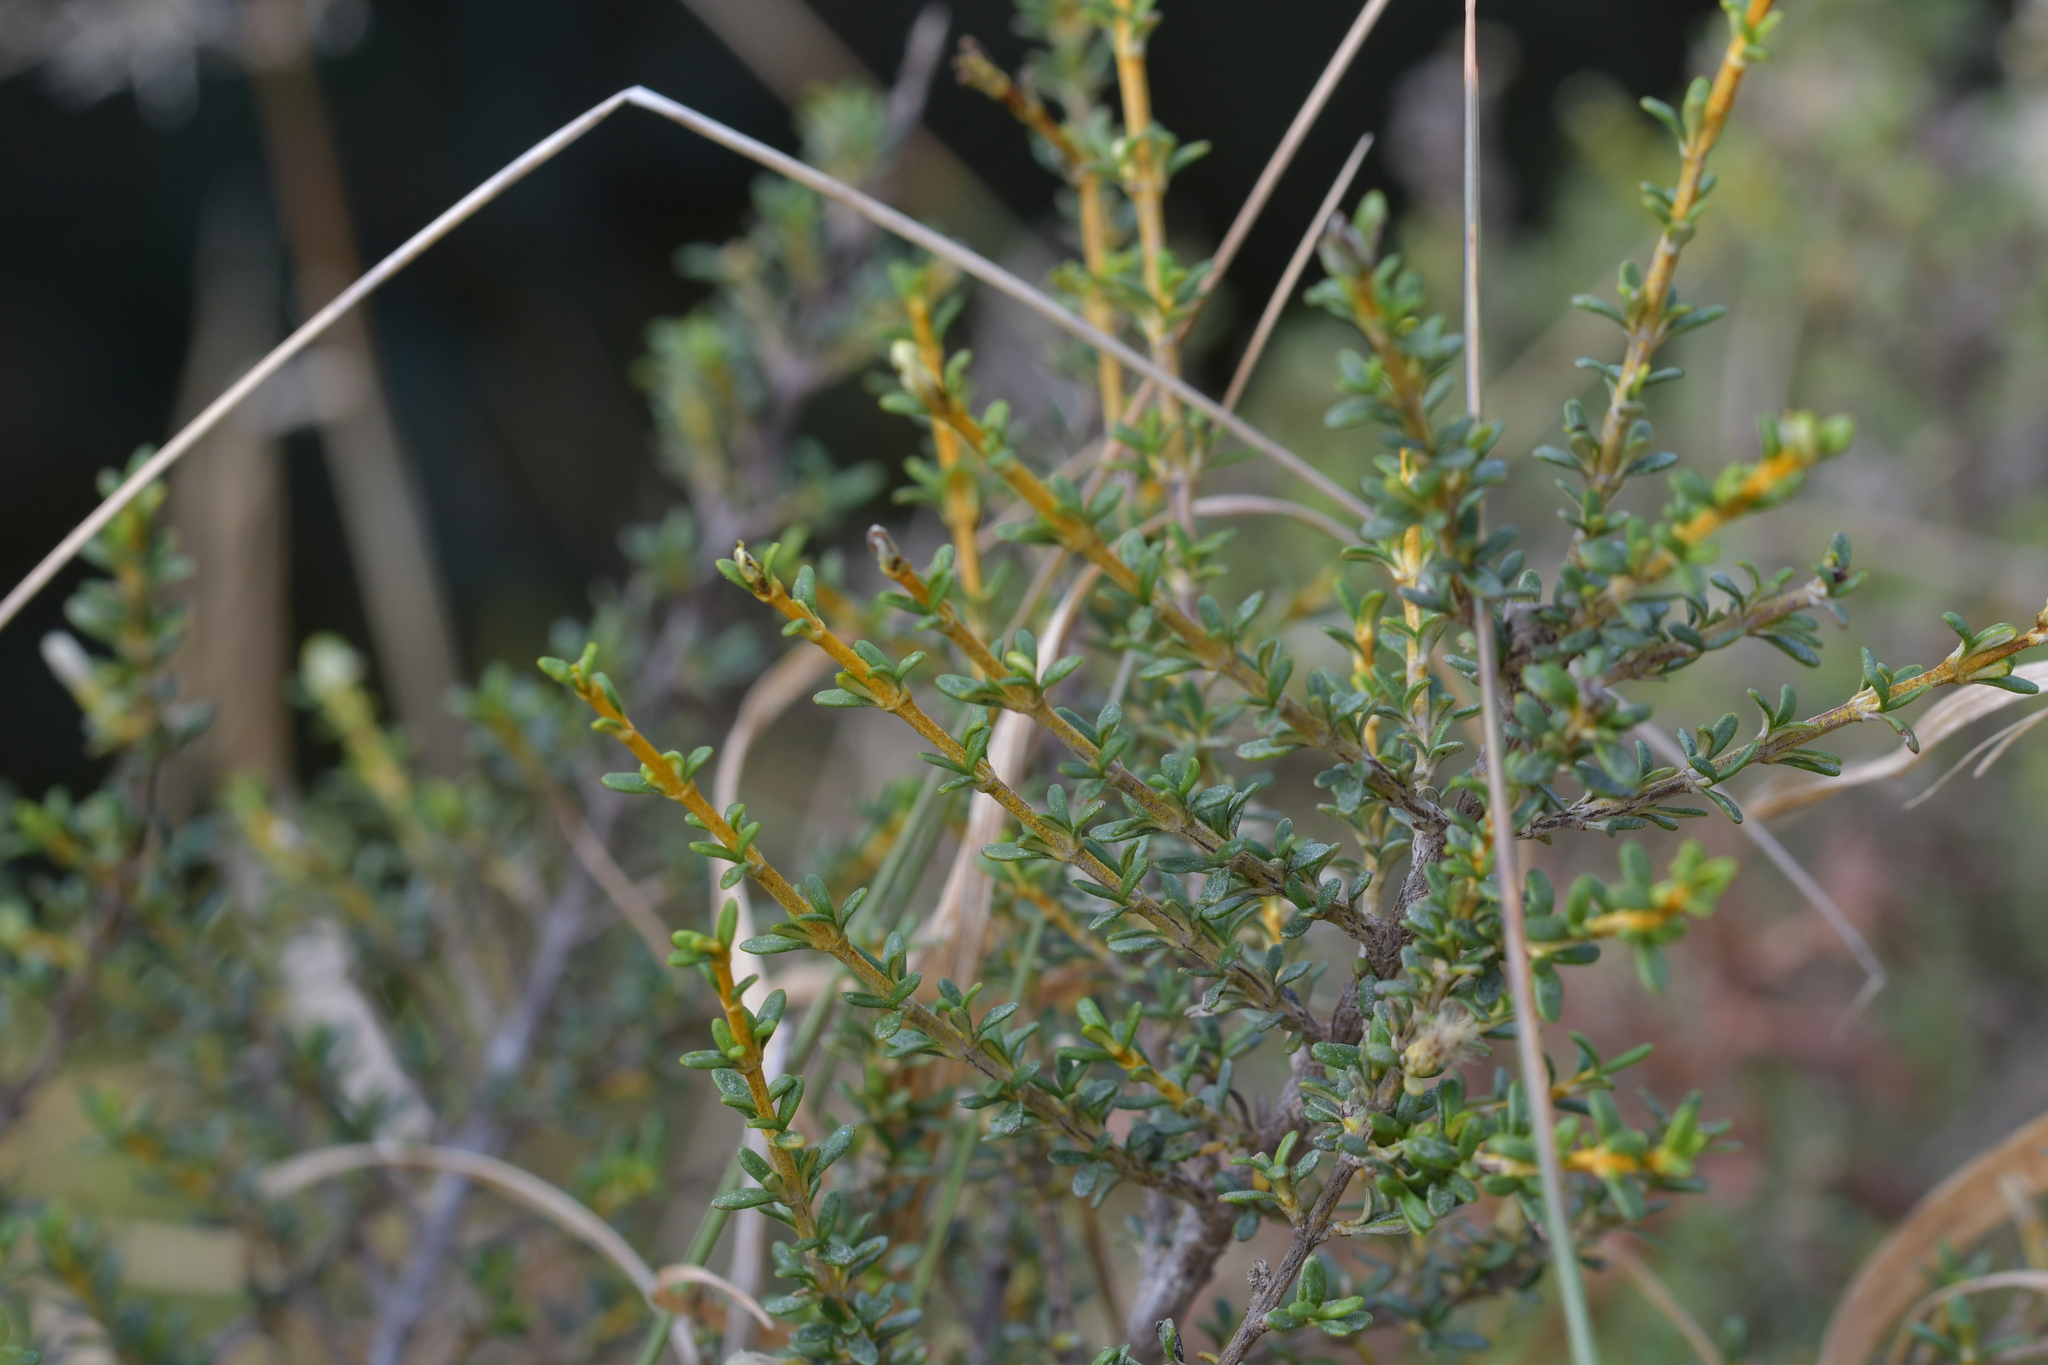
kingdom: Plantae
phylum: Tracheophyta
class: Magnoliopsida
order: Asterales
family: Asteraceae
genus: Olearia
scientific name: Olearia solandri
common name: Coastal daisybush
